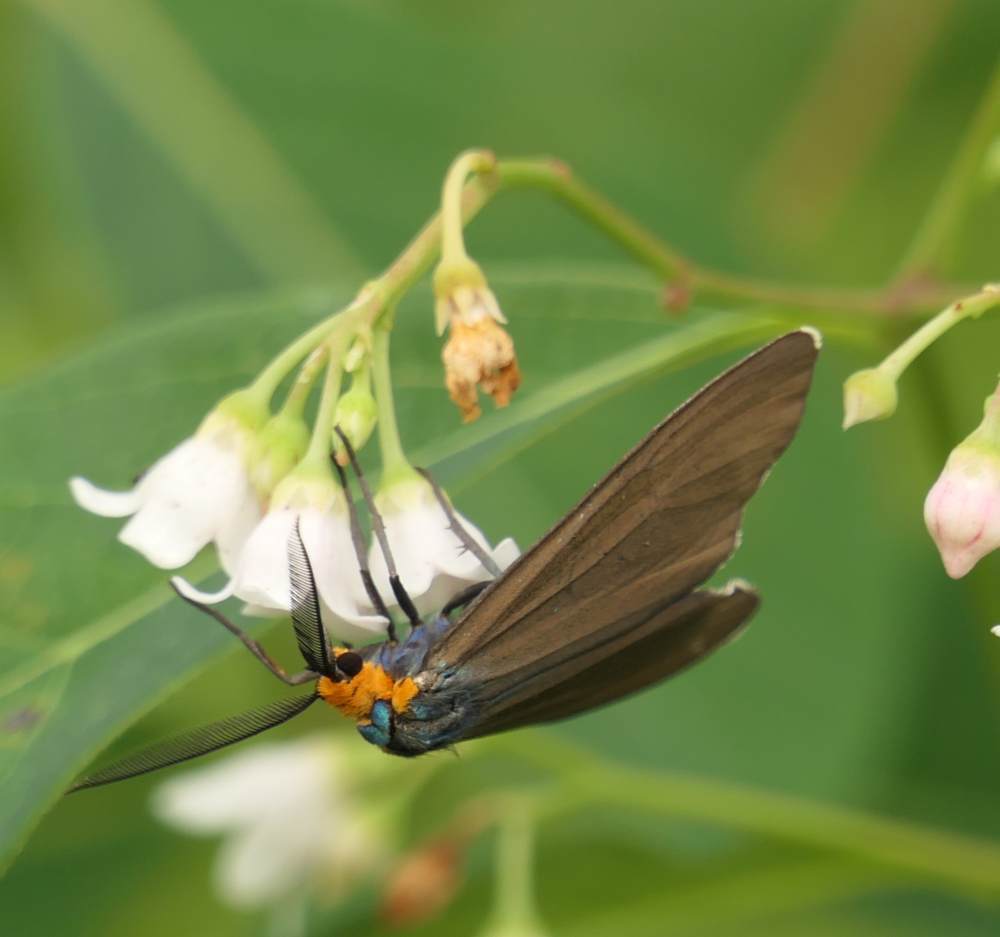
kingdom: Animalia
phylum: Arthropoda
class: Insecta
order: Lepidoptera
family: Erebidae
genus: Ctenucha
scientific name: Ctenucha virginica
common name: Virginia ctenucha moth
